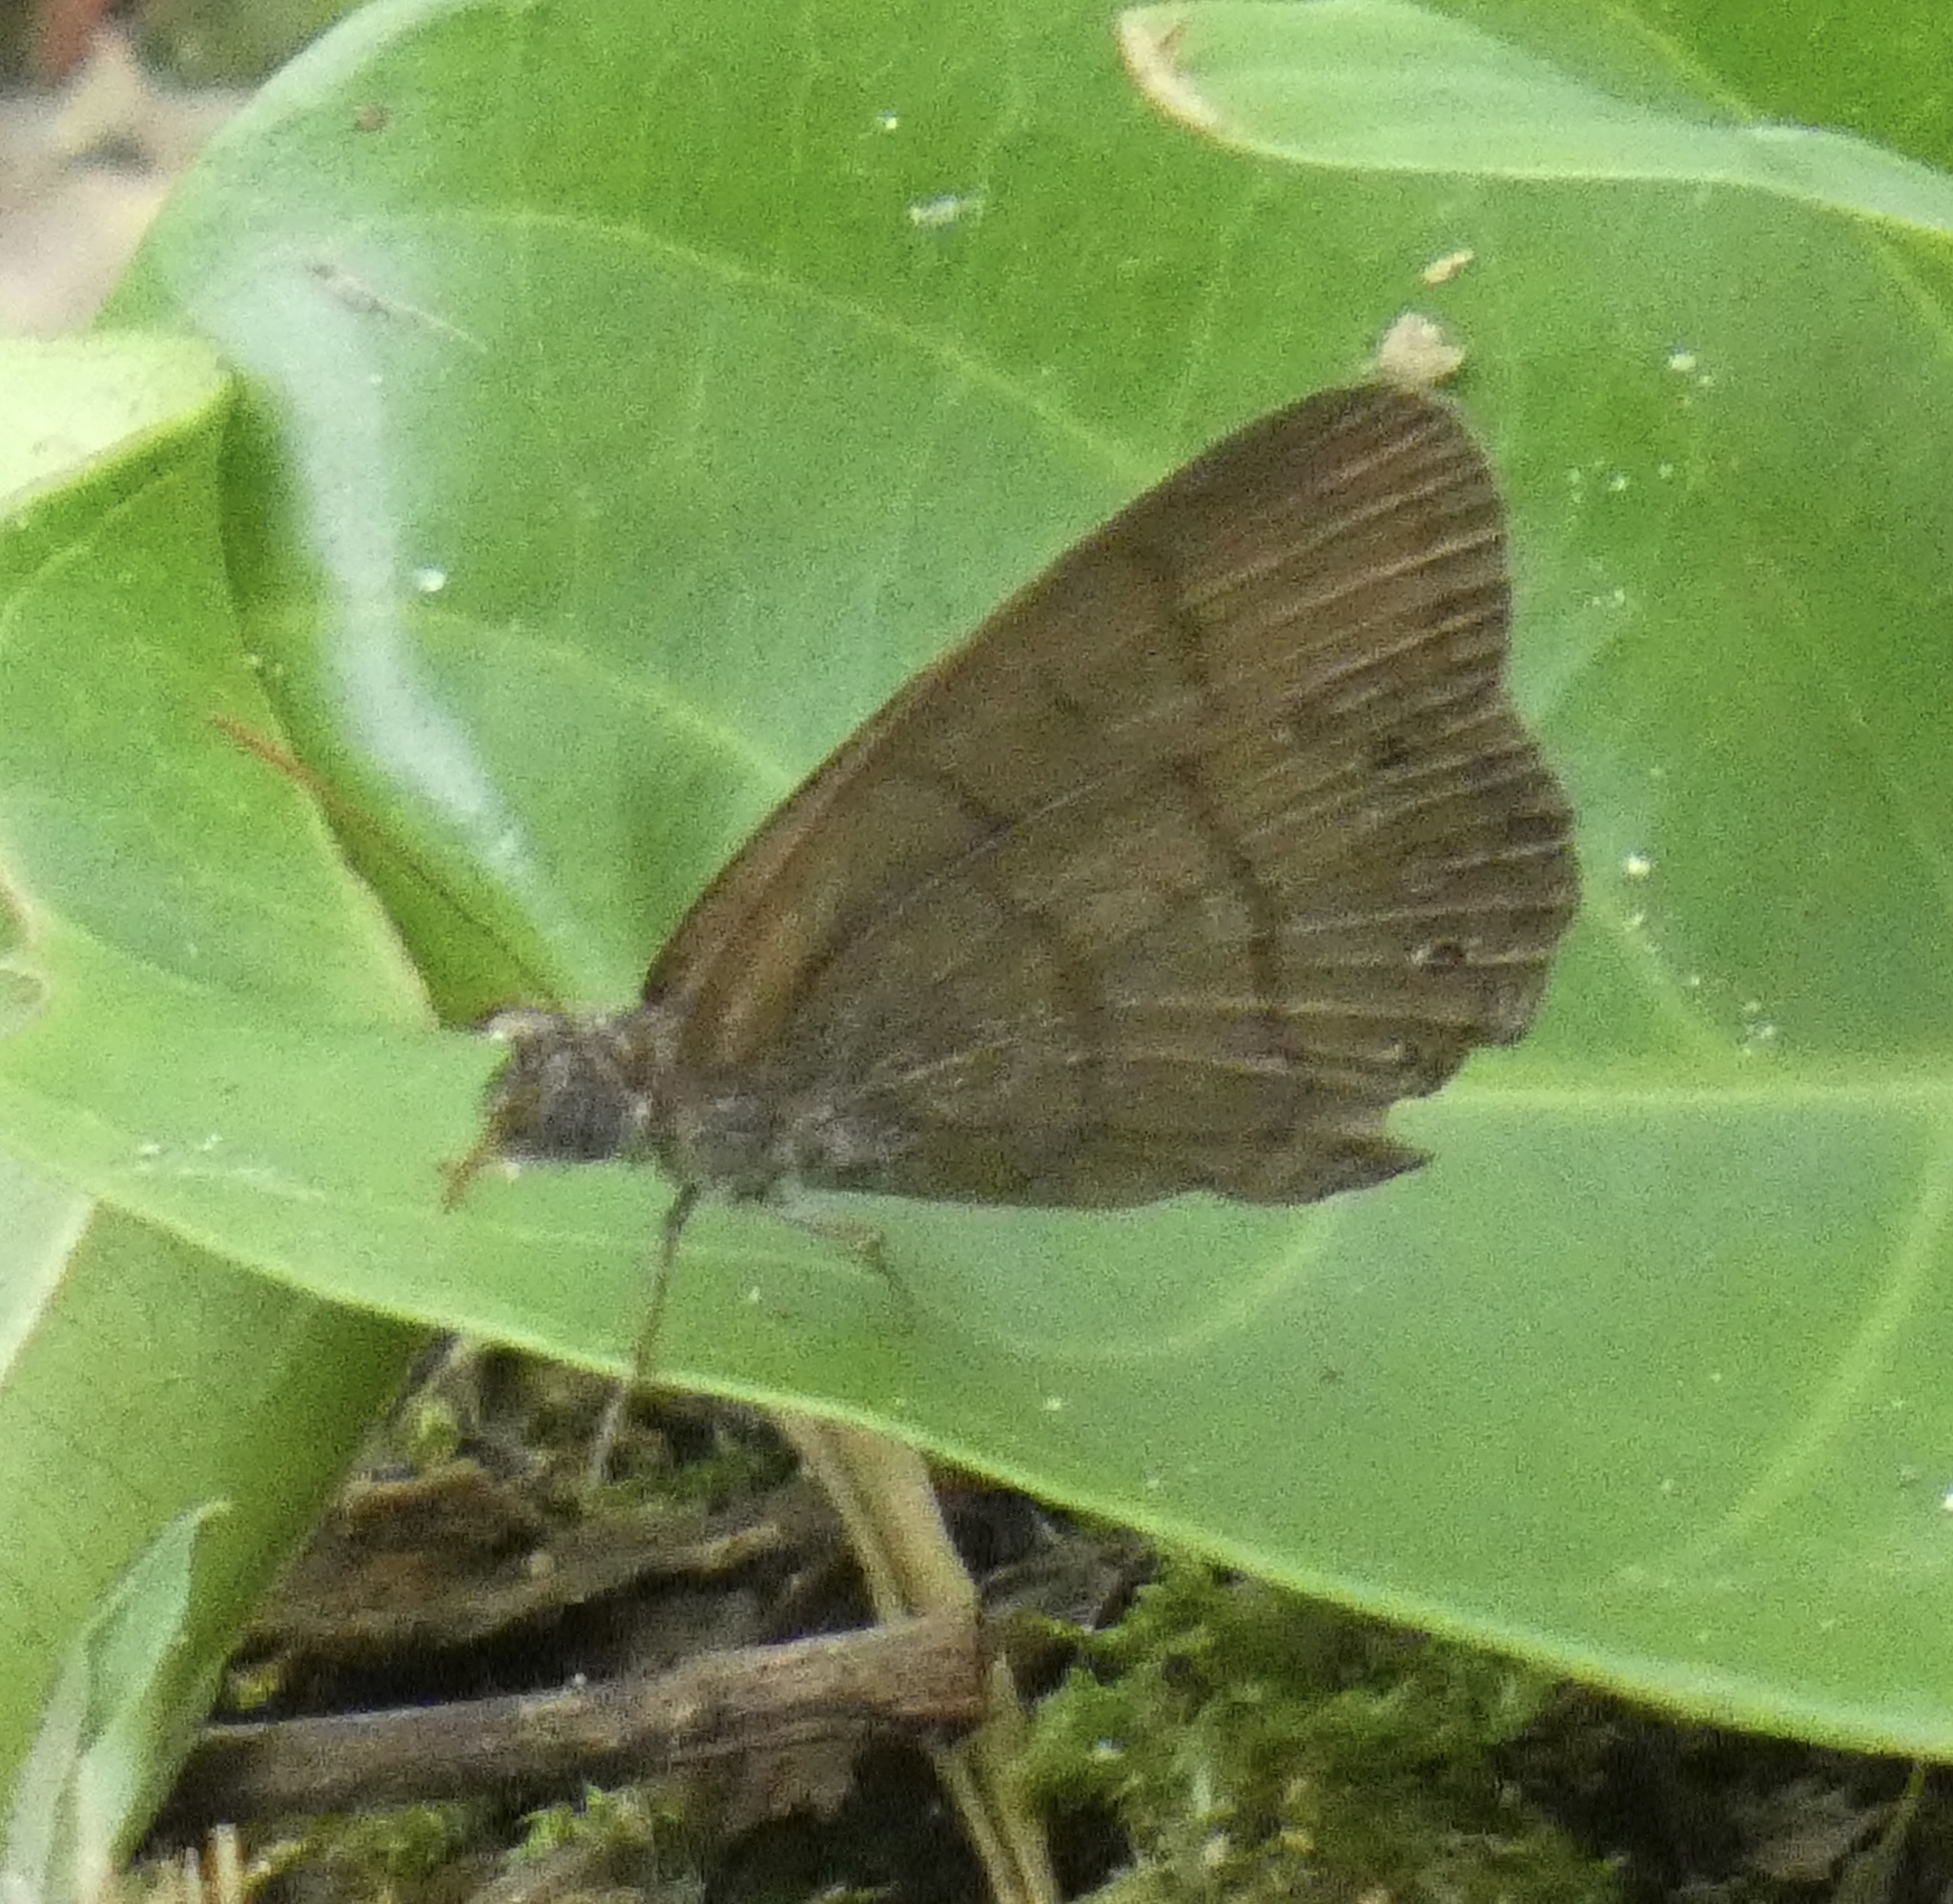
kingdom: Animalia
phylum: Arthropoda
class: Insecta
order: Lepidoptera
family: Nymphalidae
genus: Hermeuptychia
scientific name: Hermeuptychia hermes
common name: Hermes satyr
